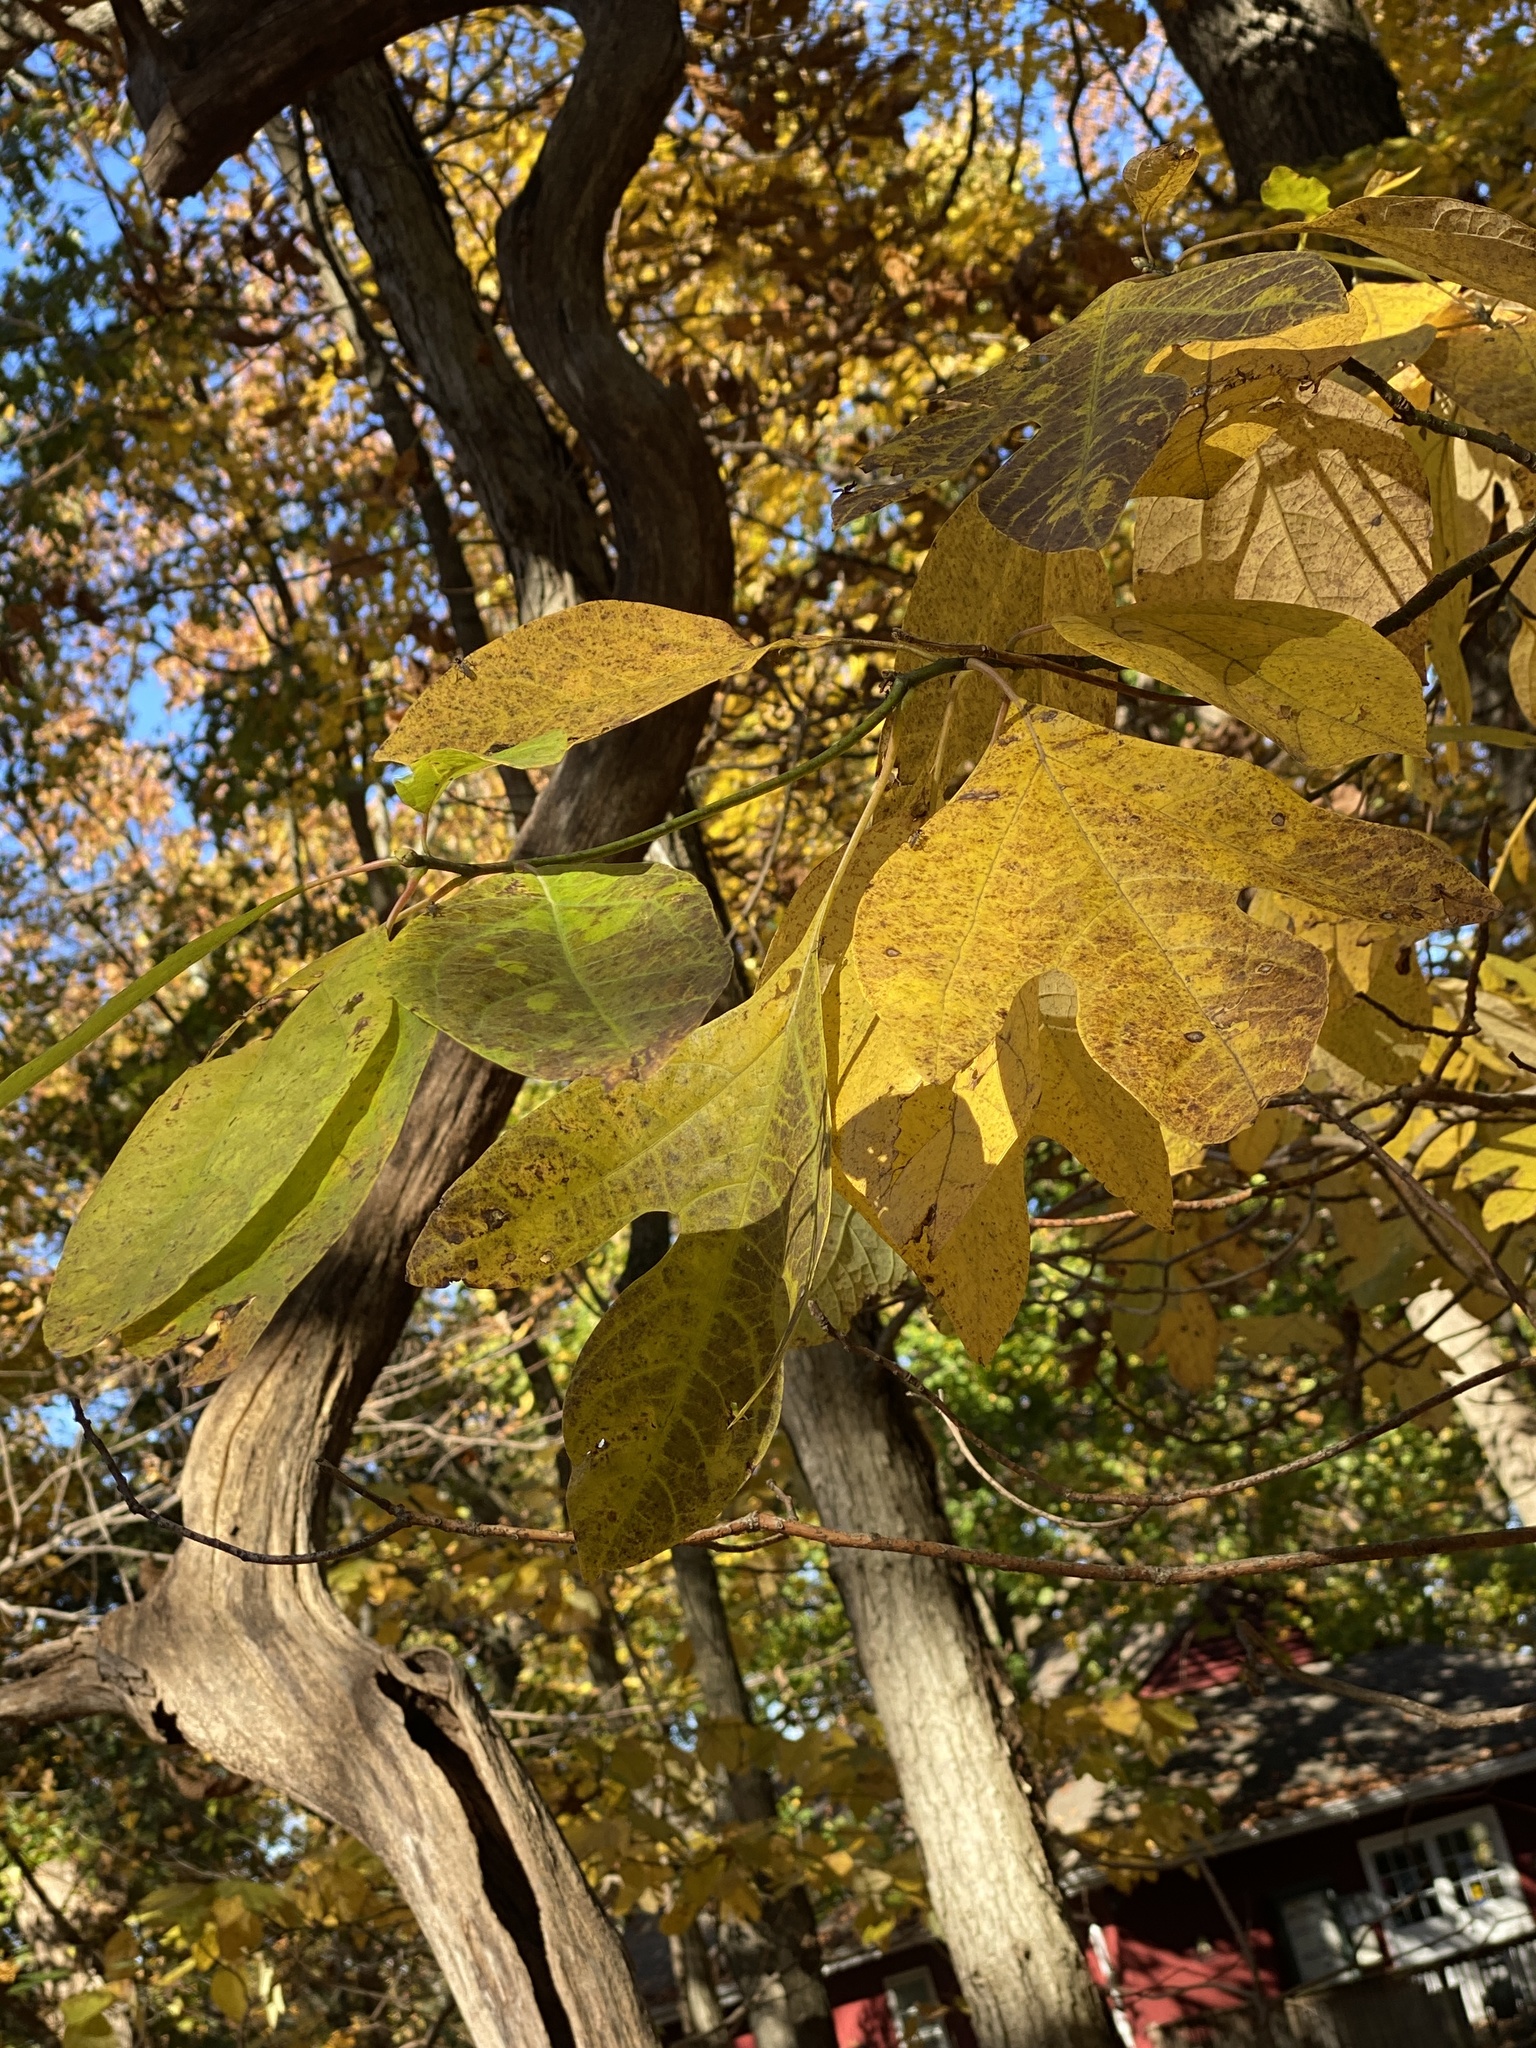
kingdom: Plantae
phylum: Tracheophyta
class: Magnoliopsida
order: Laurales
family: Lauraceae
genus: Sassafras
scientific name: Sassafras albidum
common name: Sassafras
